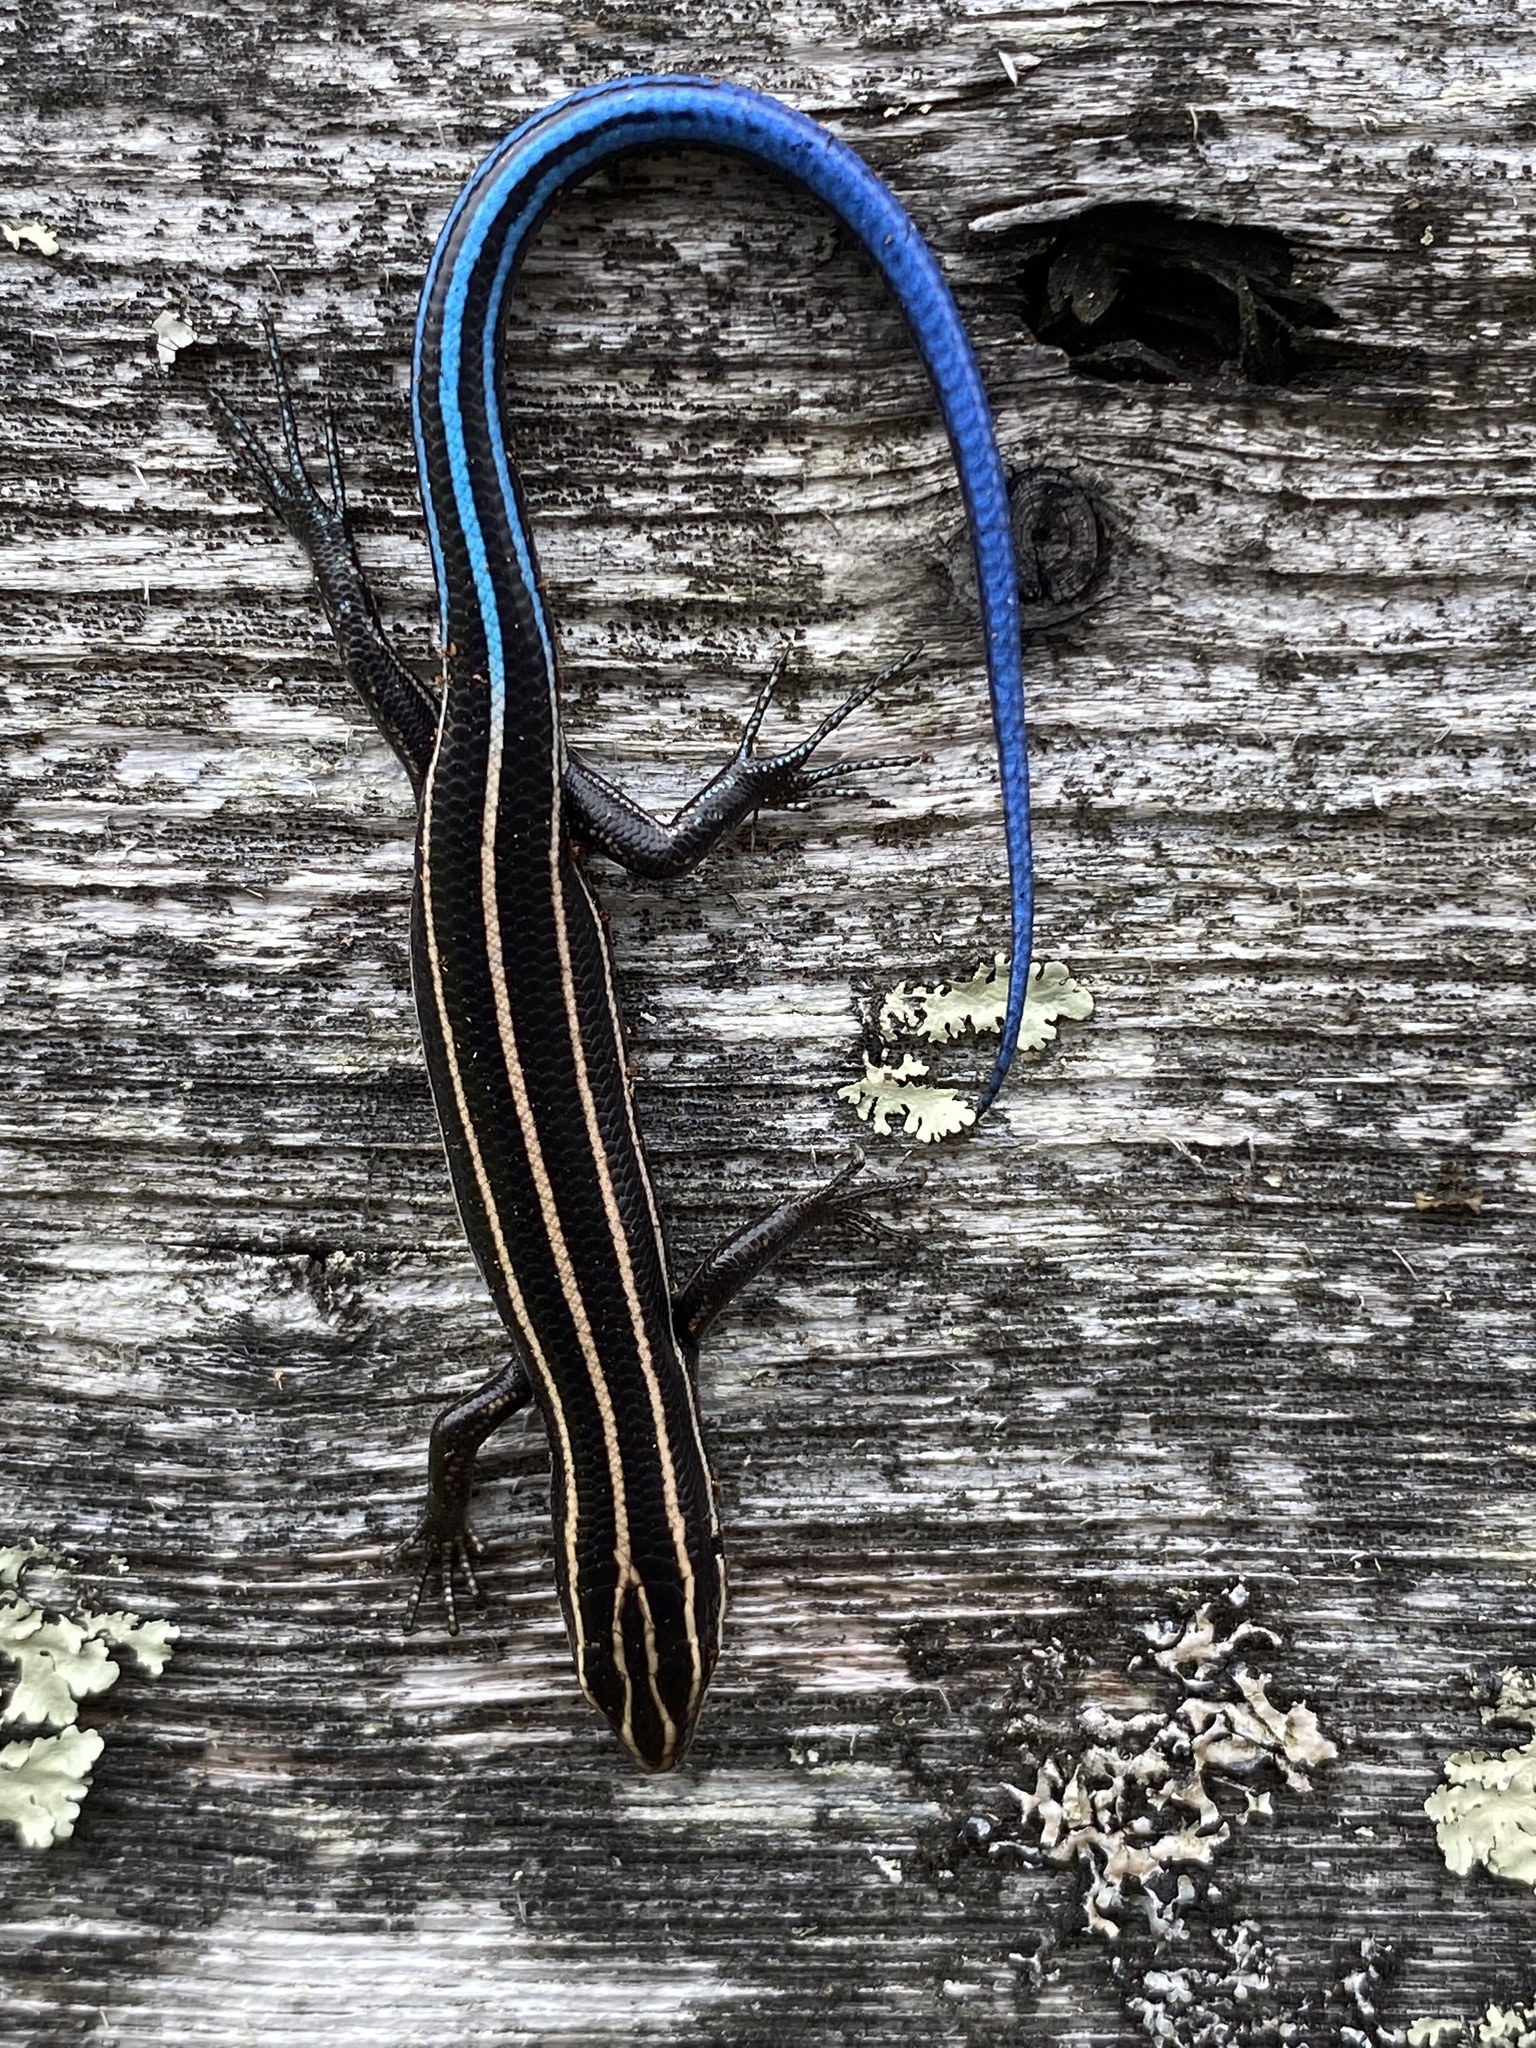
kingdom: Animalia
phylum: Chordata
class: Squamata
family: Scincidae
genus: Plestiodon
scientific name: Plestiodon fasciatus
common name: Five-lined skink
